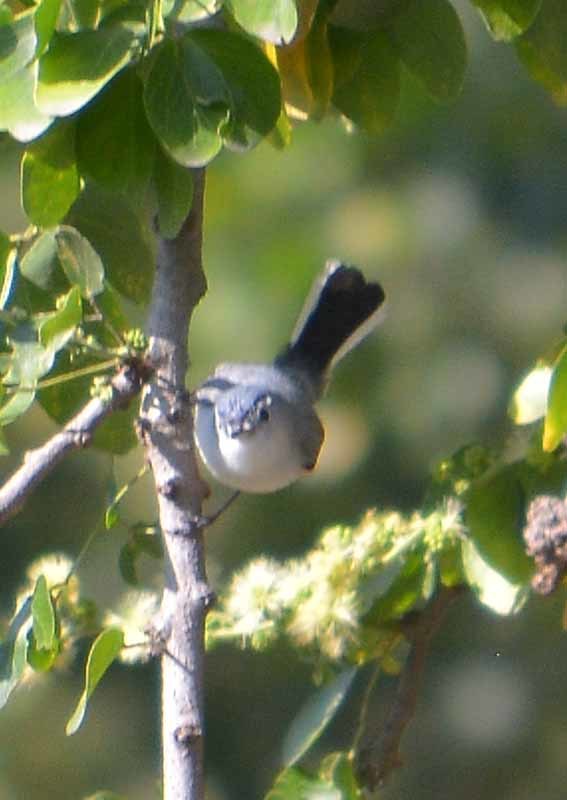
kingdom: Animalia
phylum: Chordata
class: Aves
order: Passeriformes
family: Polioptilidae
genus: Polioptila
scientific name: Polioptila caerulea
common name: Blue-gray gnatcatcher
